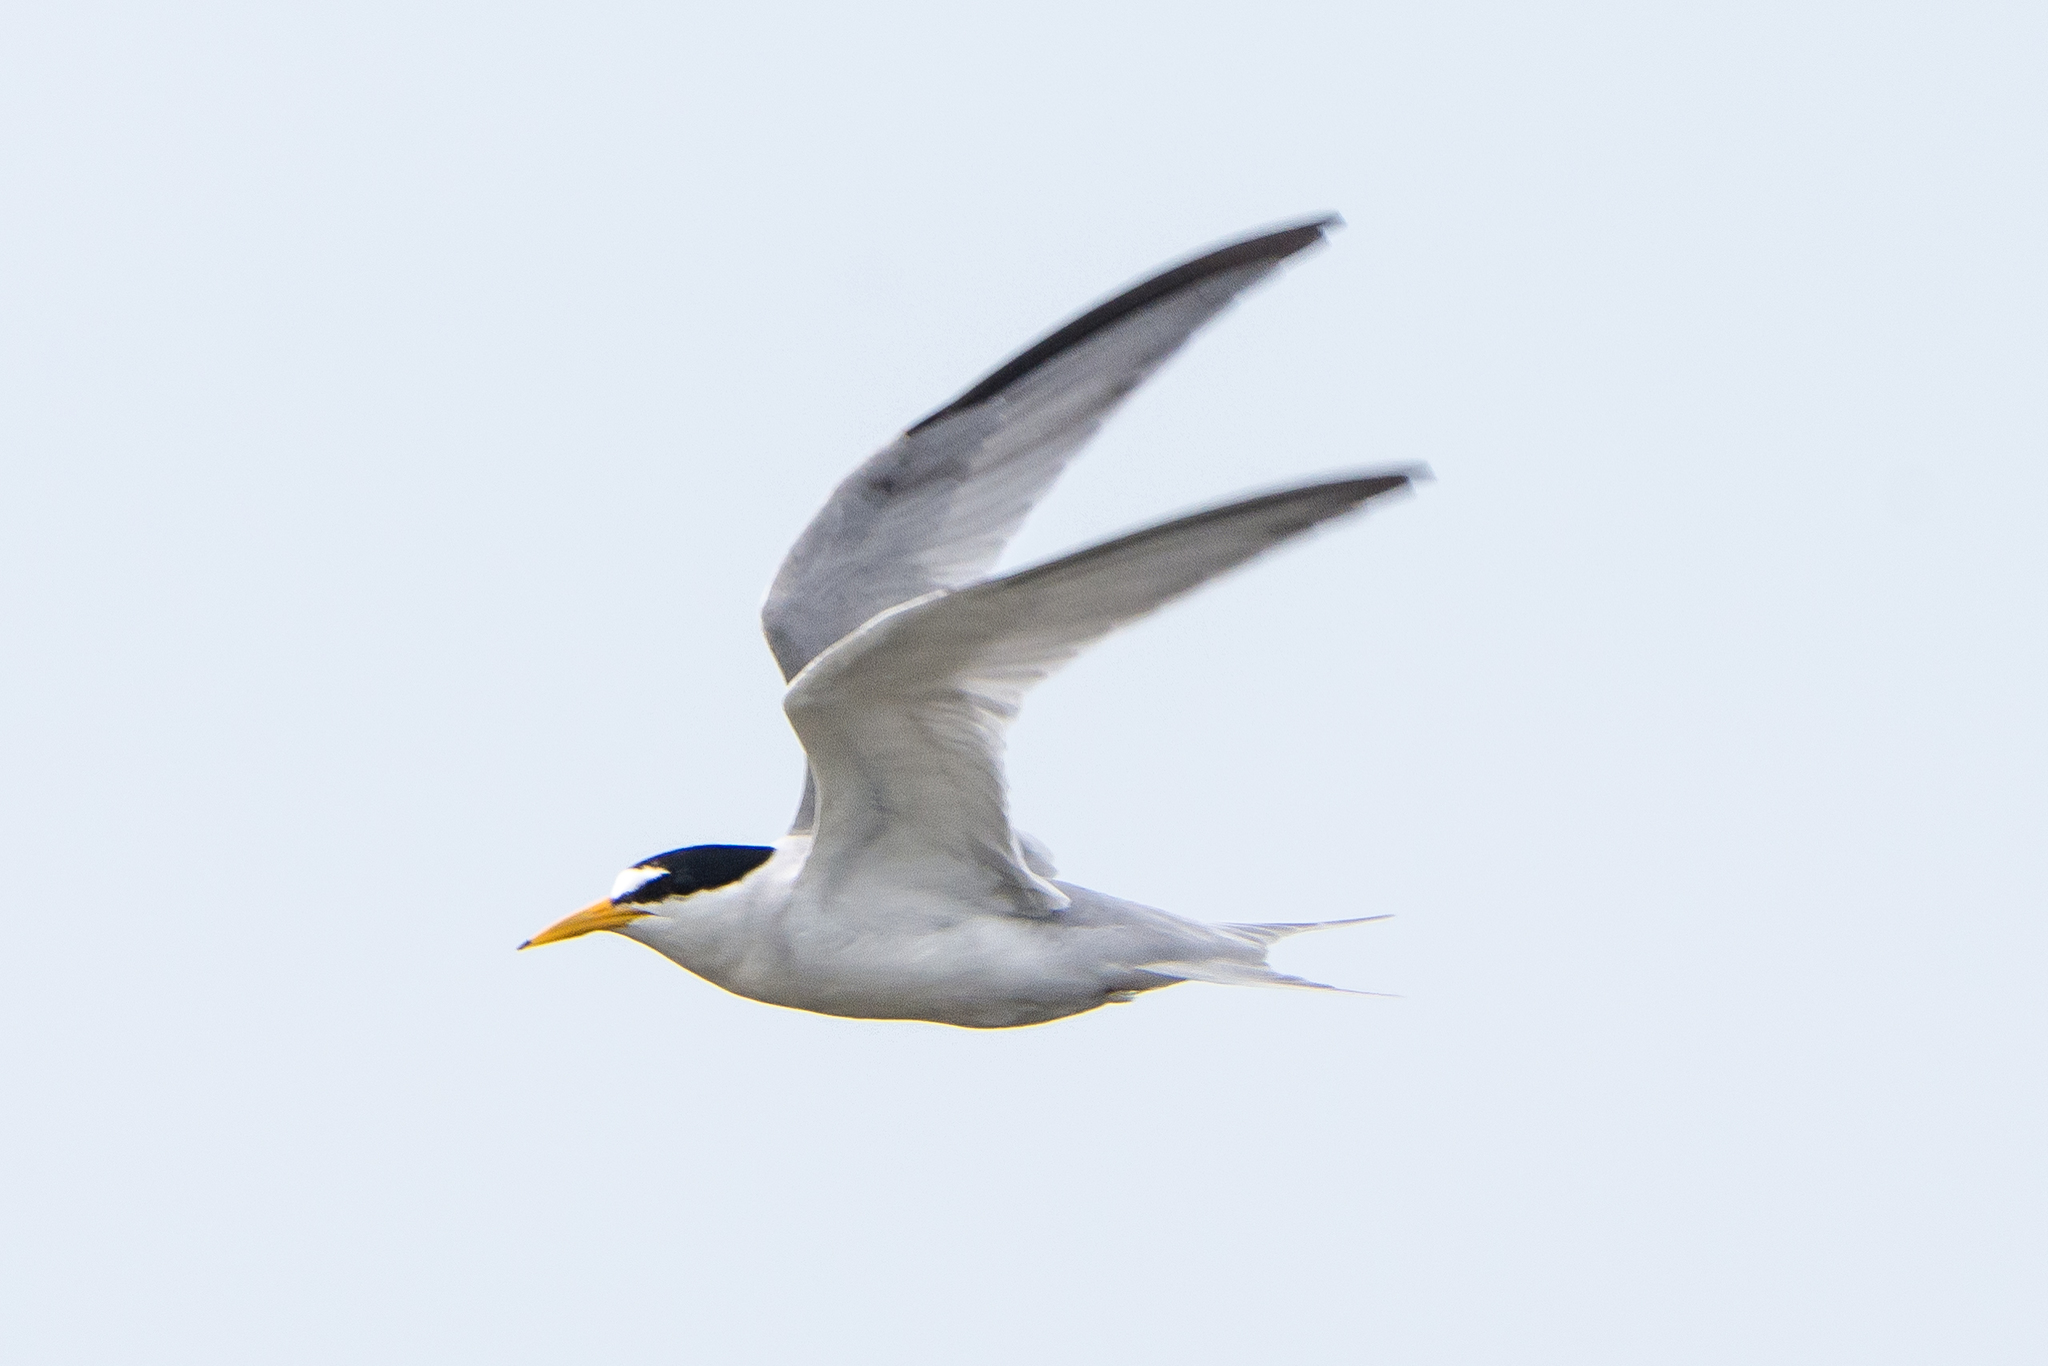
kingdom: Animalia
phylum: Chordata
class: Aves
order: Charadriiformes
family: Laridae
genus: Sternula
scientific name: Sternula antillarum
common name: Least tern
